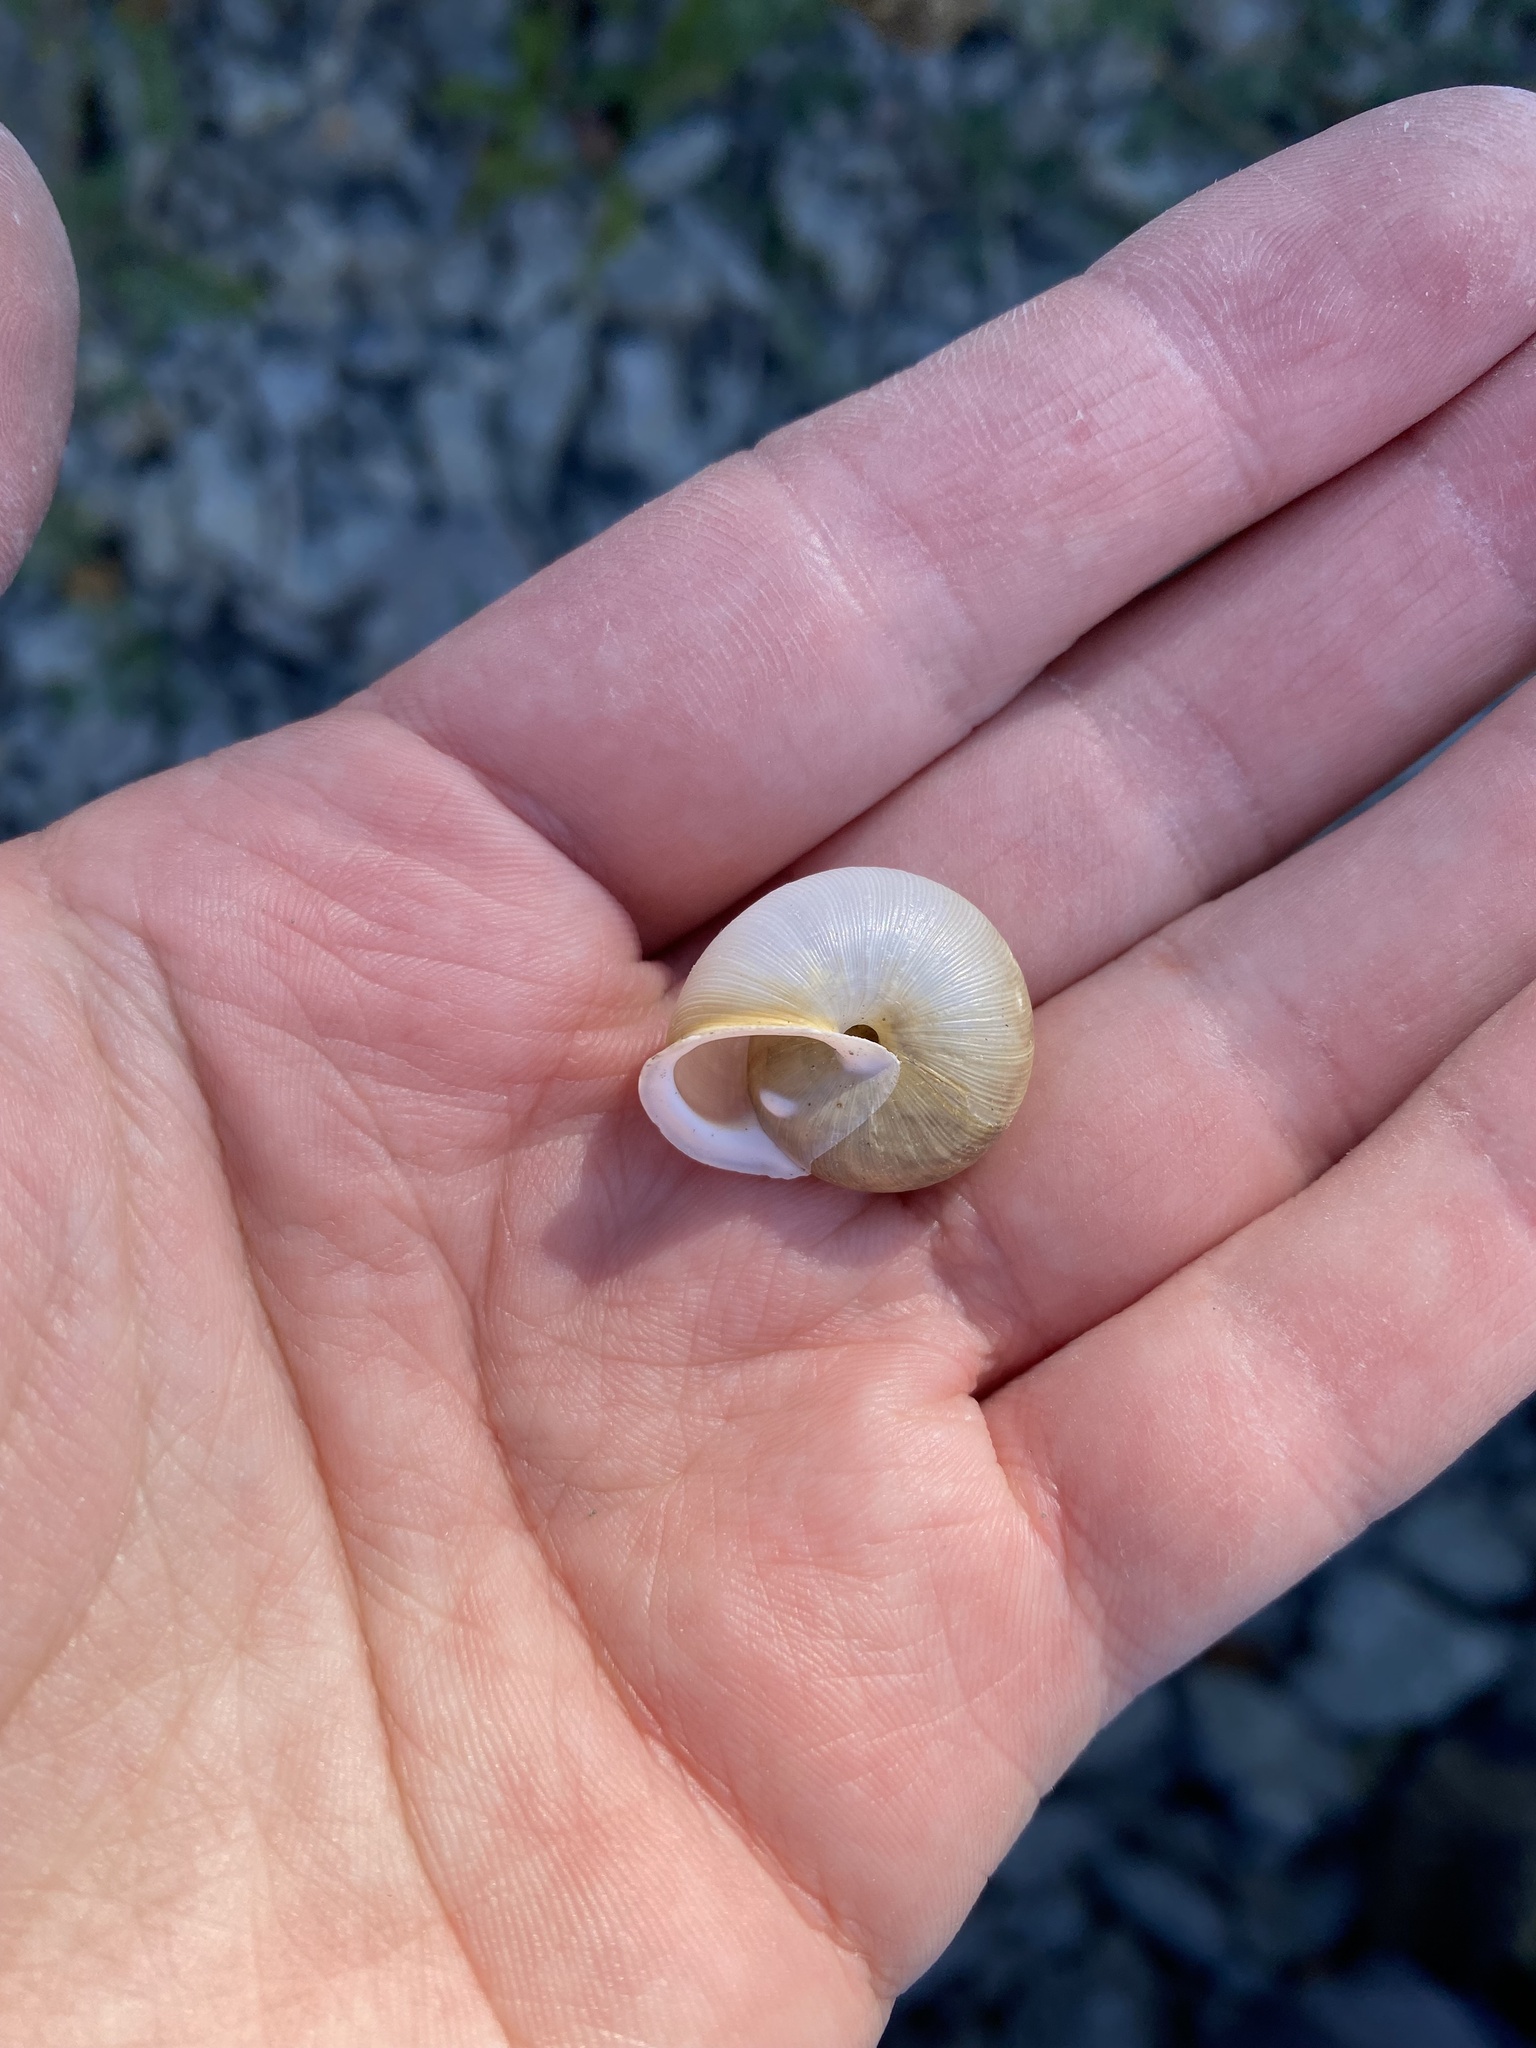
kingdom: Animalia
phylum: Mollusca
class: Gastropoda
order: Stylommatophora
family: Polygyridae
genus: Mesodon
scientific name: Mesodon thyroidus
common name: White-lip globe
